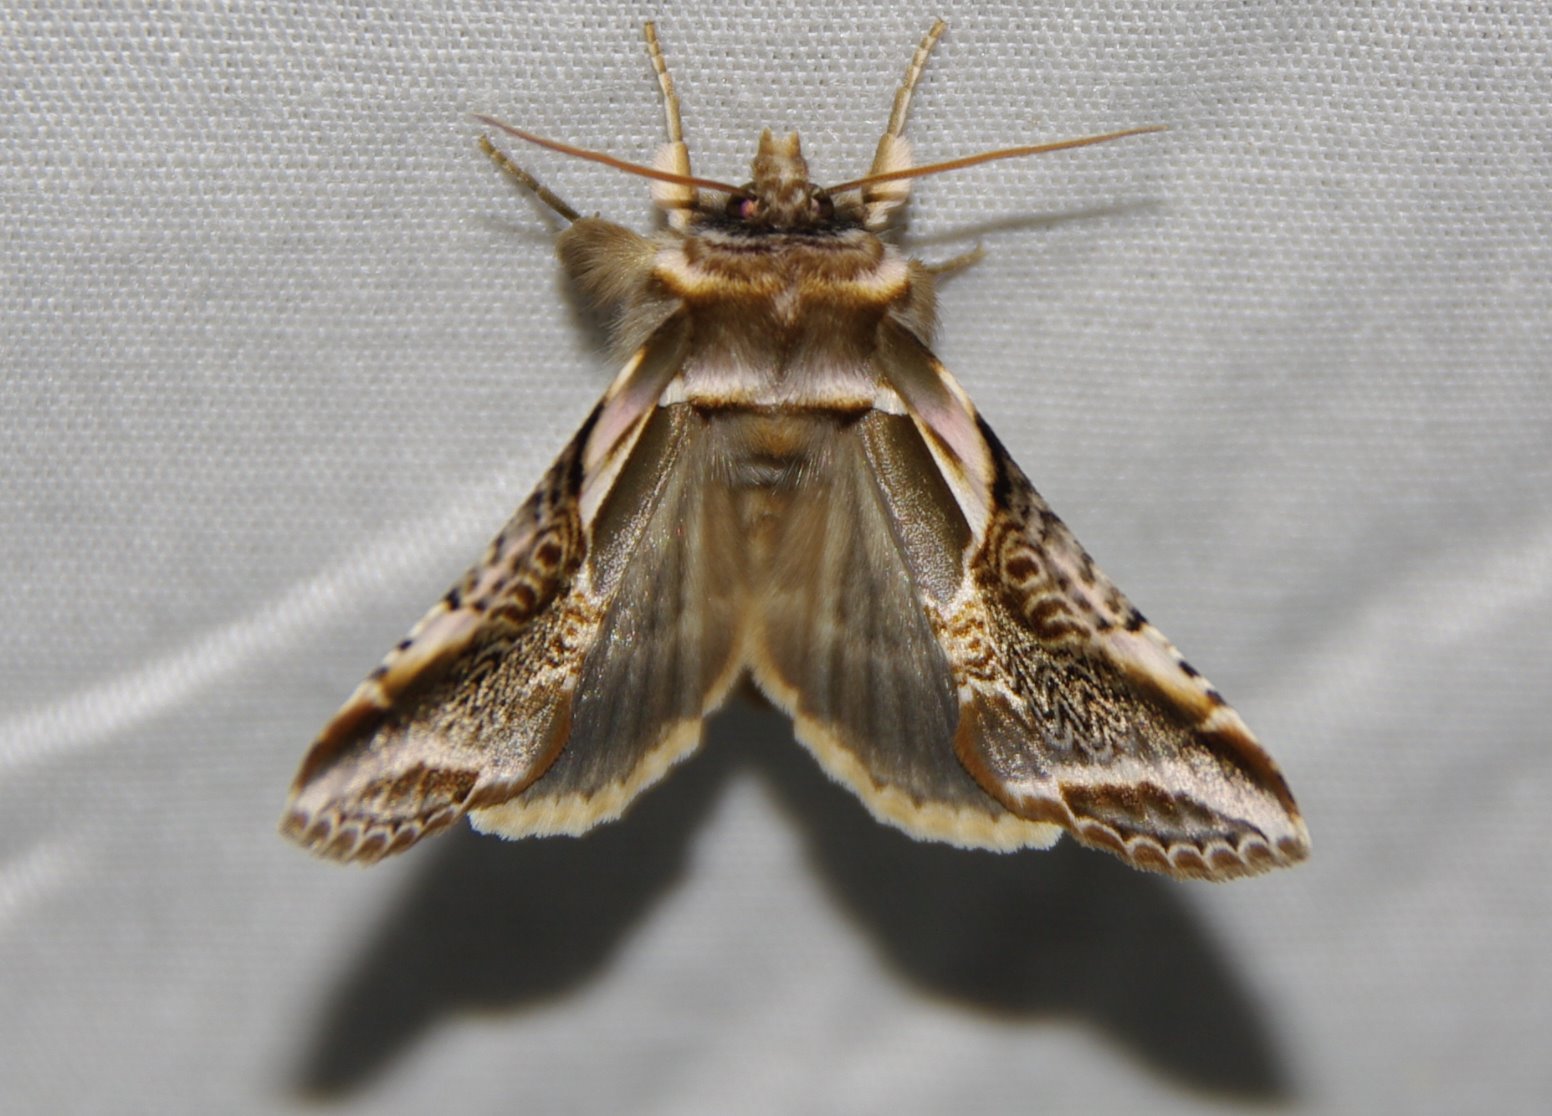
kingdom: Animalia
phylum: Arthropoda
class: Insecta
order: Lepidoptera
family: Drepanidae
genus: Habrosyne
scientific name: Habrosyne scripta
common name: Lettered habrosyne moth
